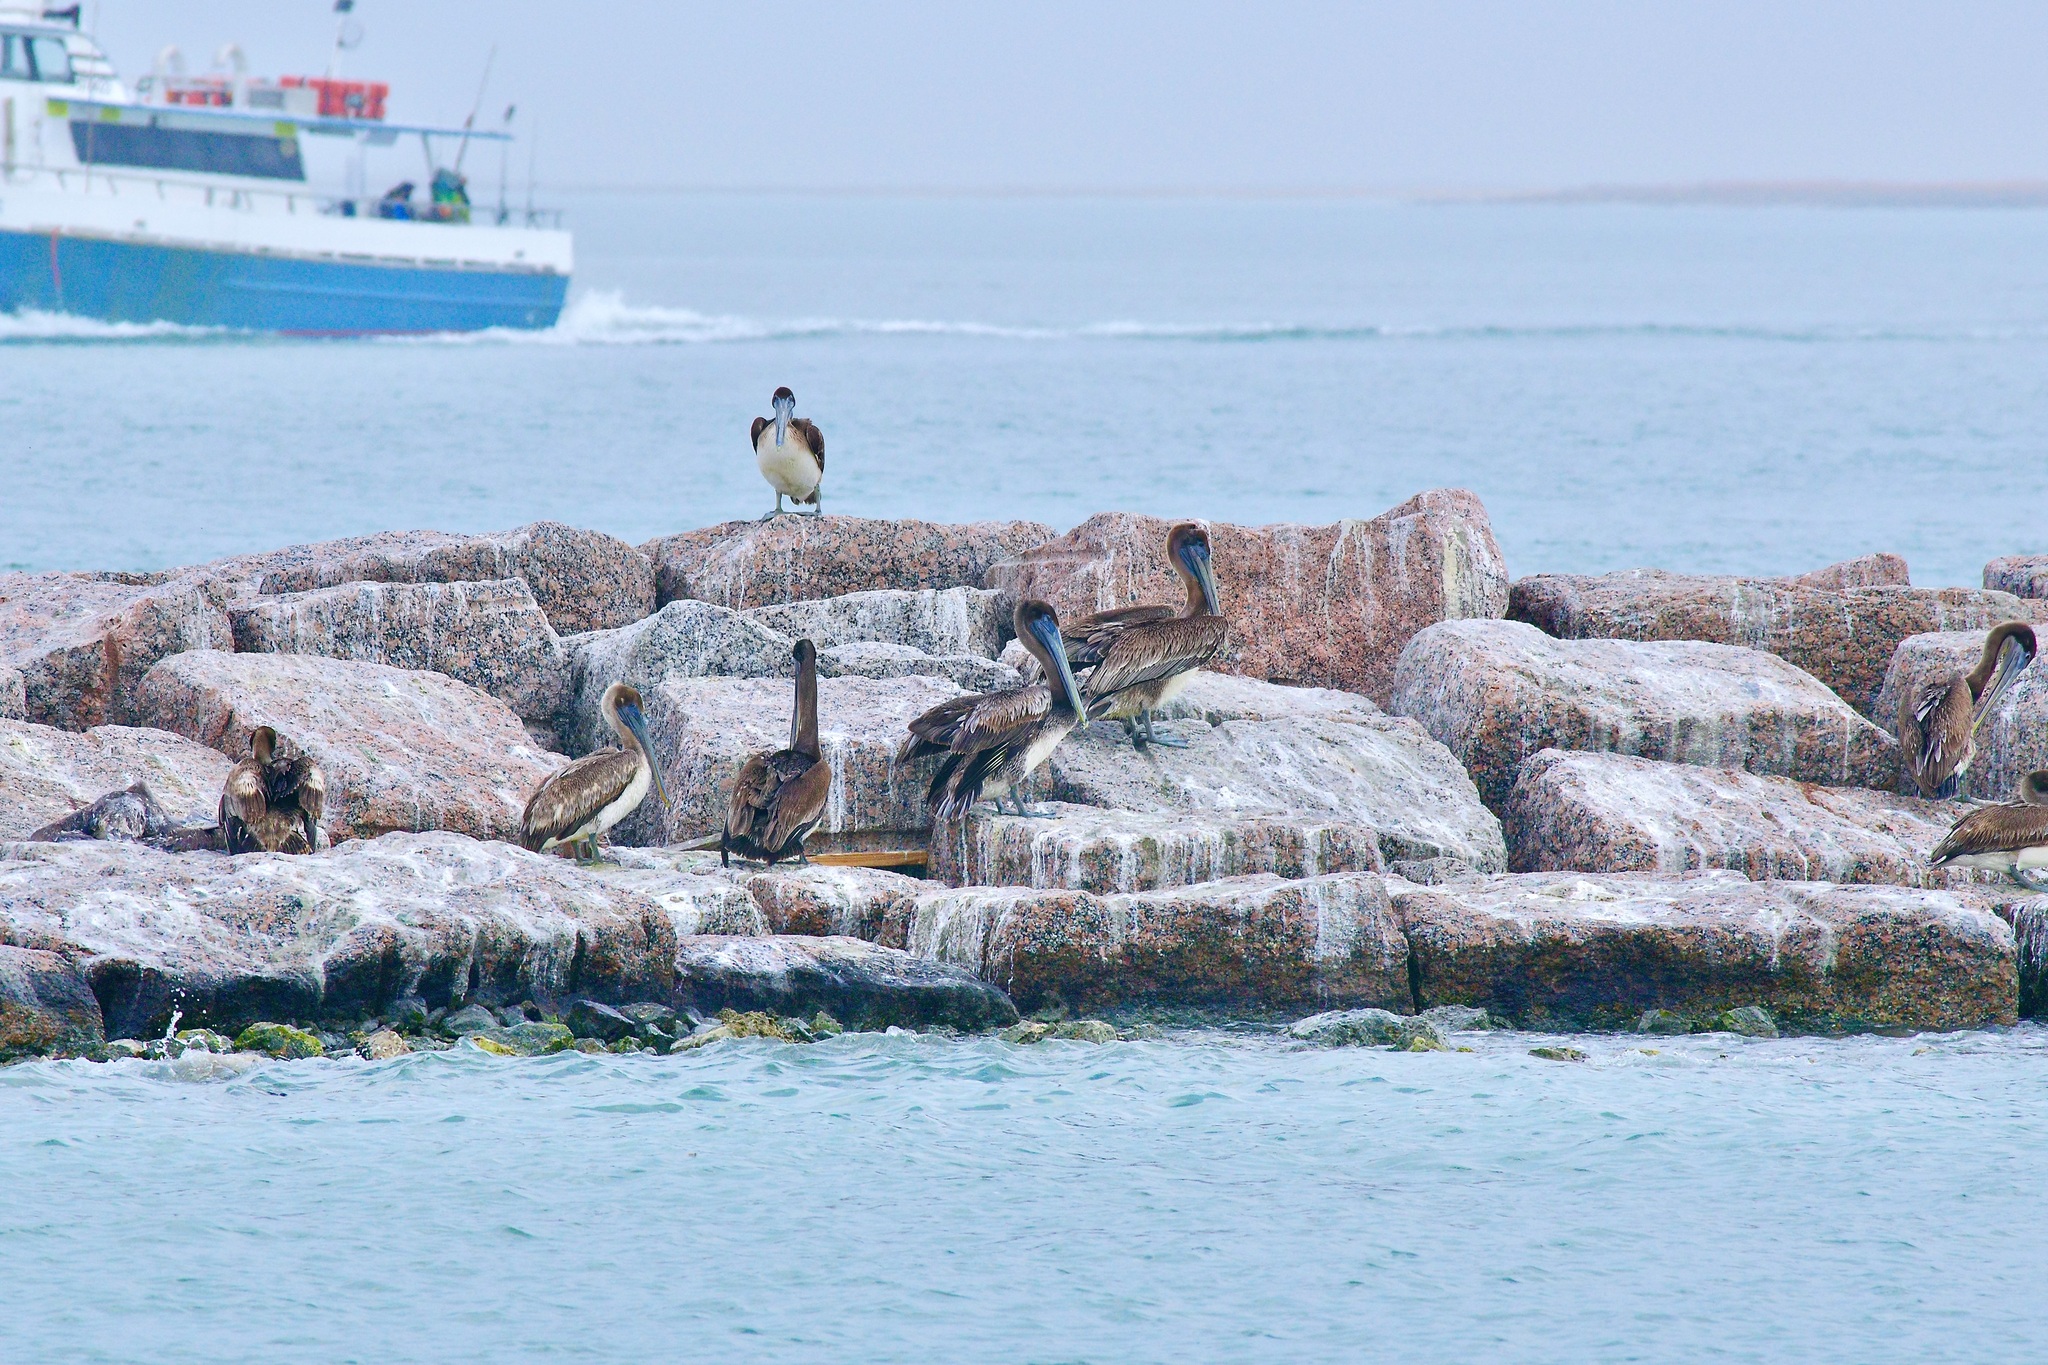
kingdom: Animalia
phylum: Chordata
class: Aves
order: Pelecaniformes
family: Pelecanidae
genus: Pelecanus
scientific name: Pelecanus occidentalis
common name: Brown pelican
